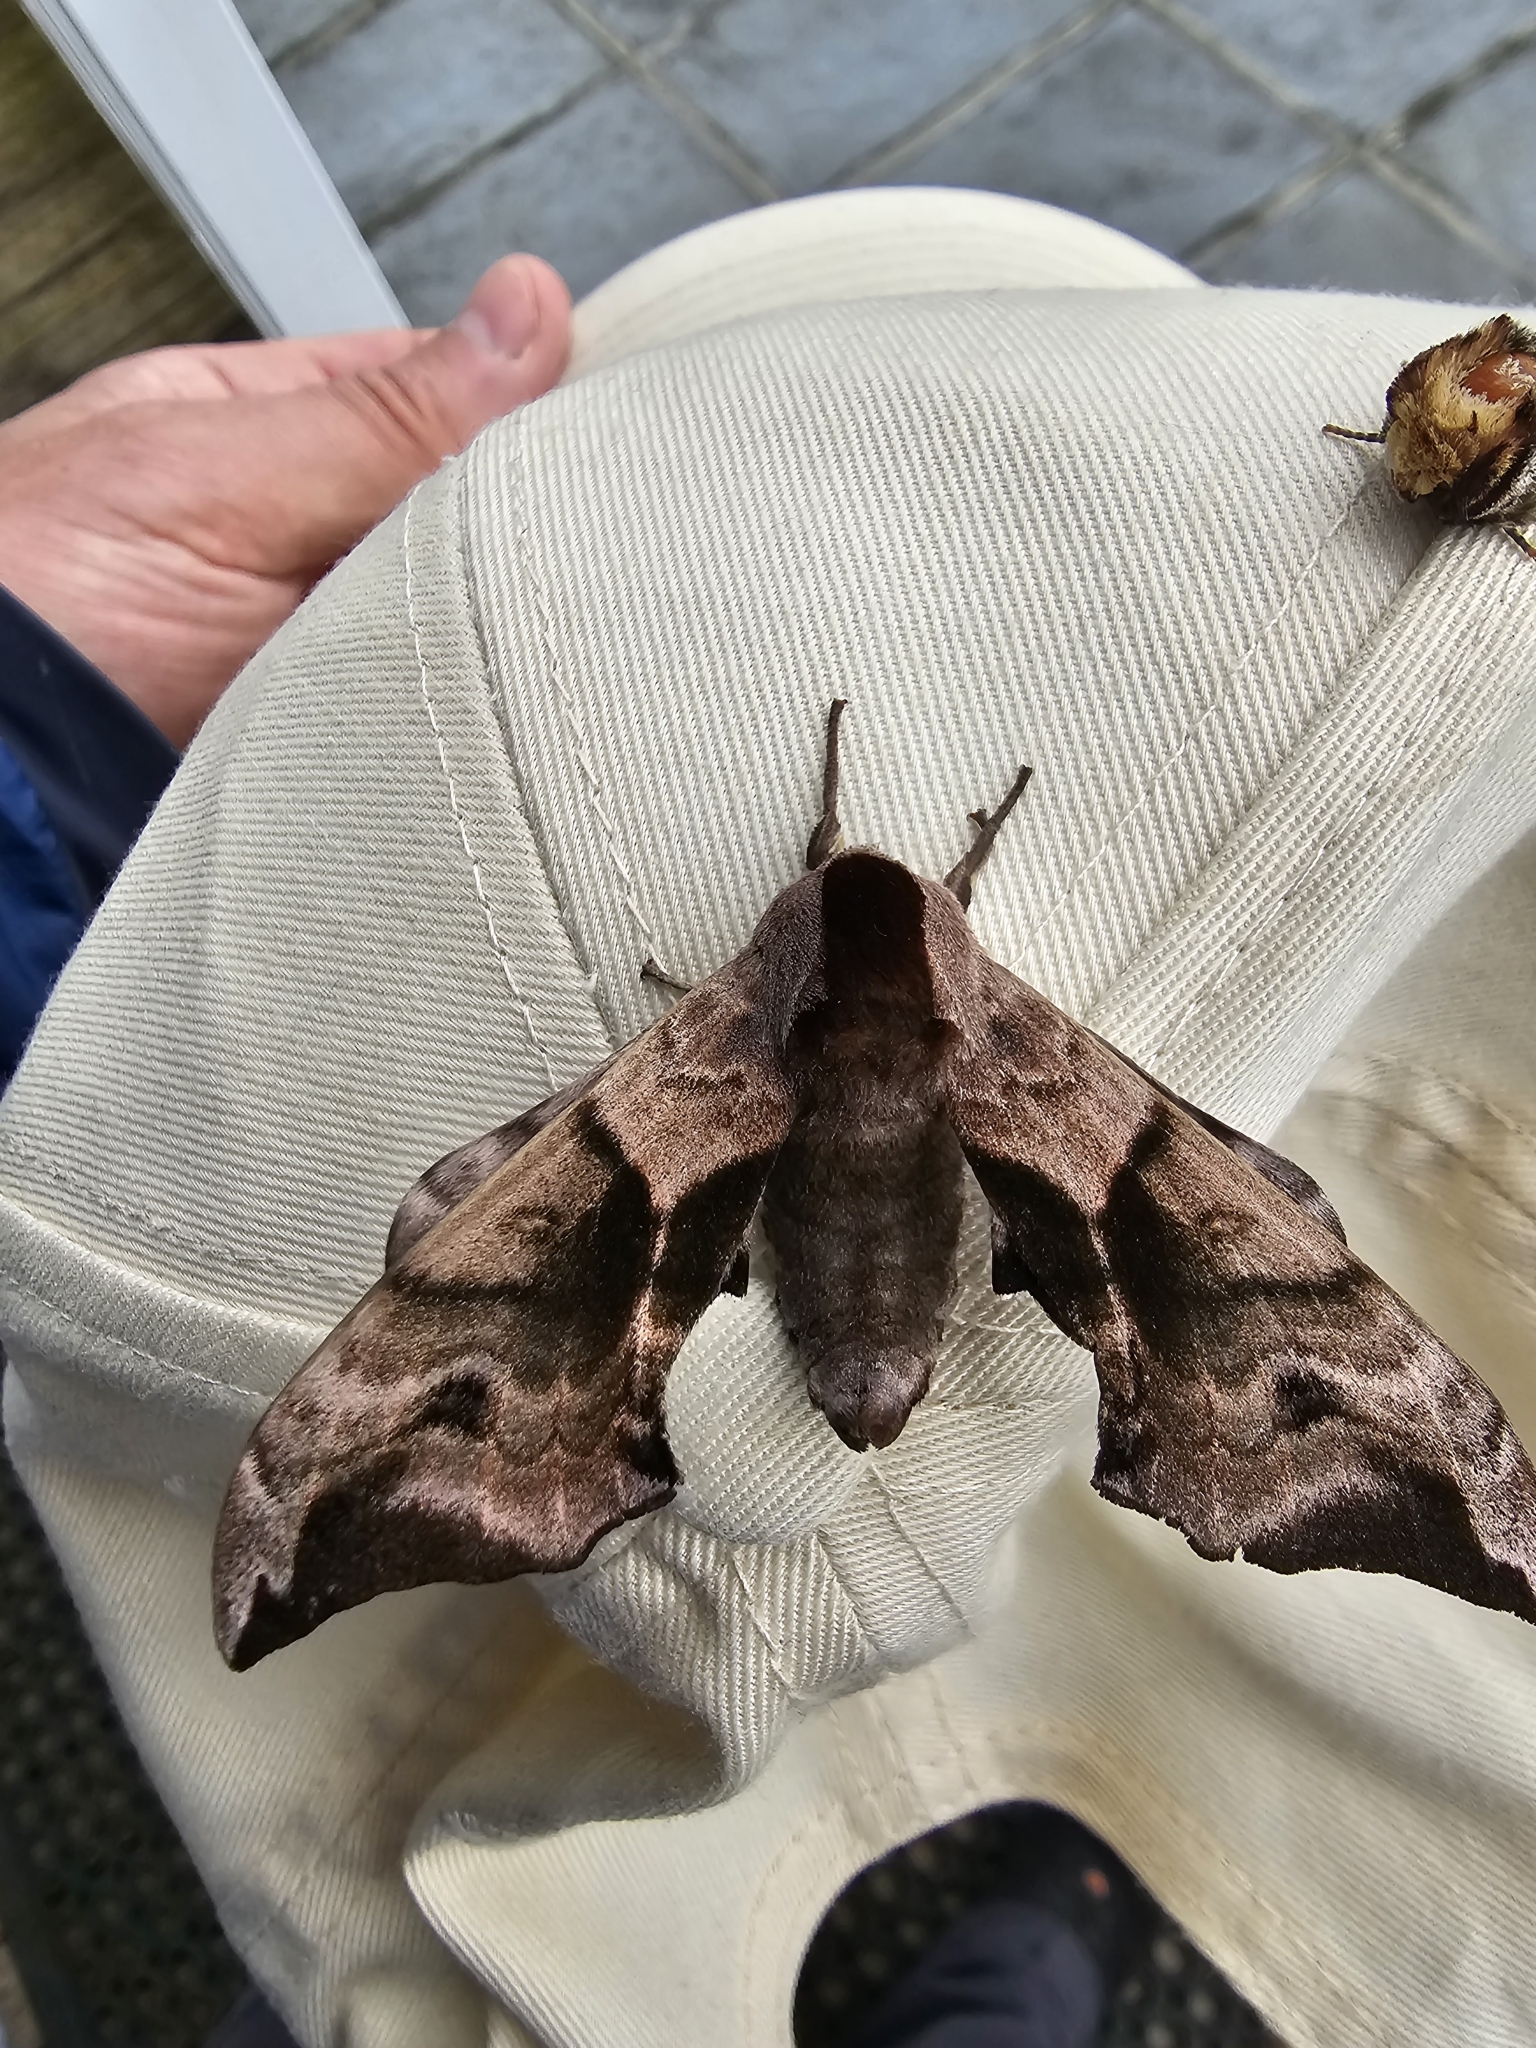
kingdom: Animalia
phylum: Arthropoda
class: Insecta
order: Lepidoptera
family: Sphingidae
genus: Smerinthus
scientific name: Smerinthus ocellata
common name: Eyed hawk-moth
